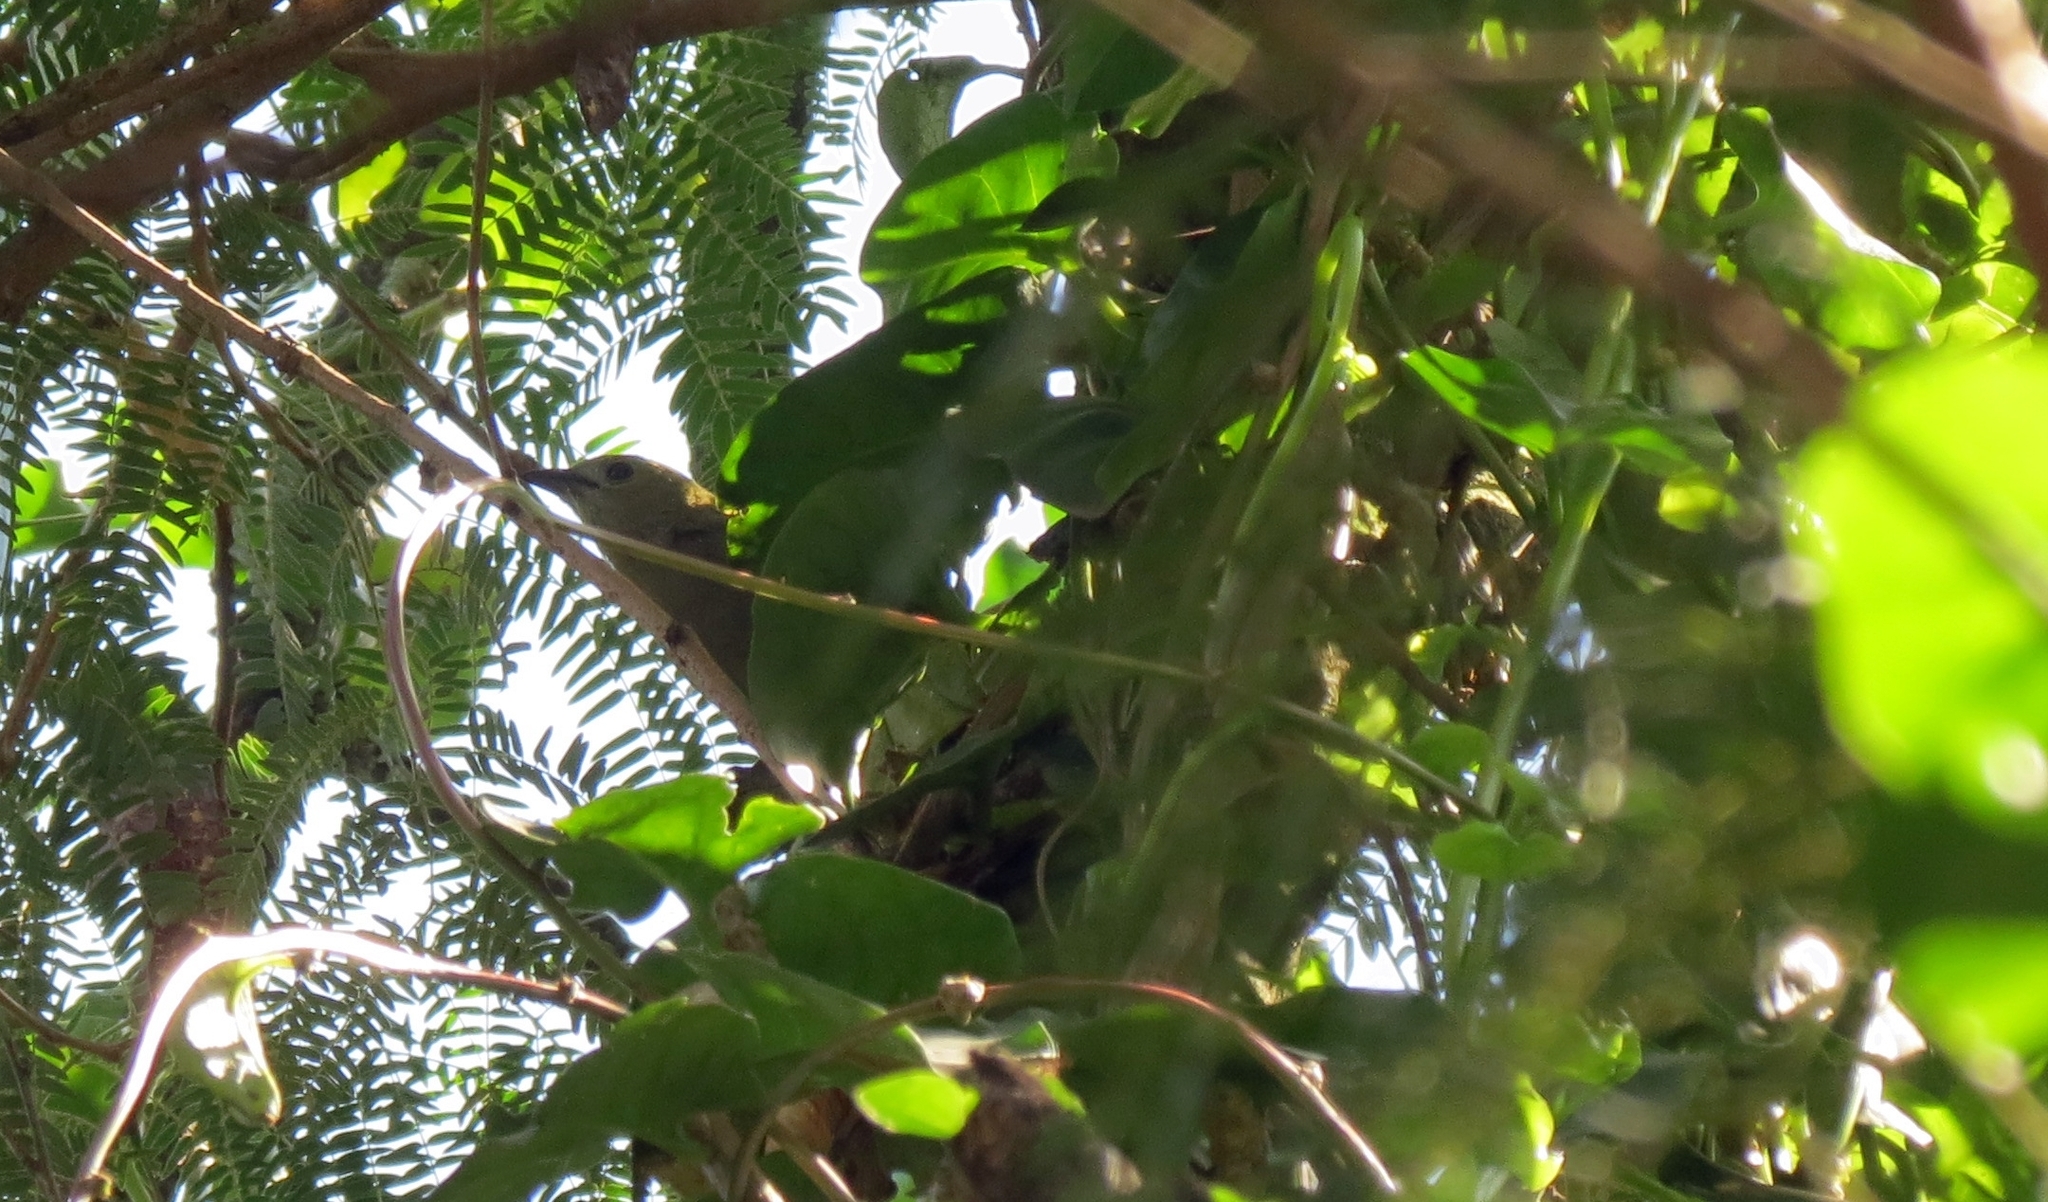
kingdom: Animalia
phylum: Chordata
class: Aves
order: Passeriformes
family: Thraupidae
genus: Thraupis
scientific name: Thraupis palmarum
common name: Palm tanager
